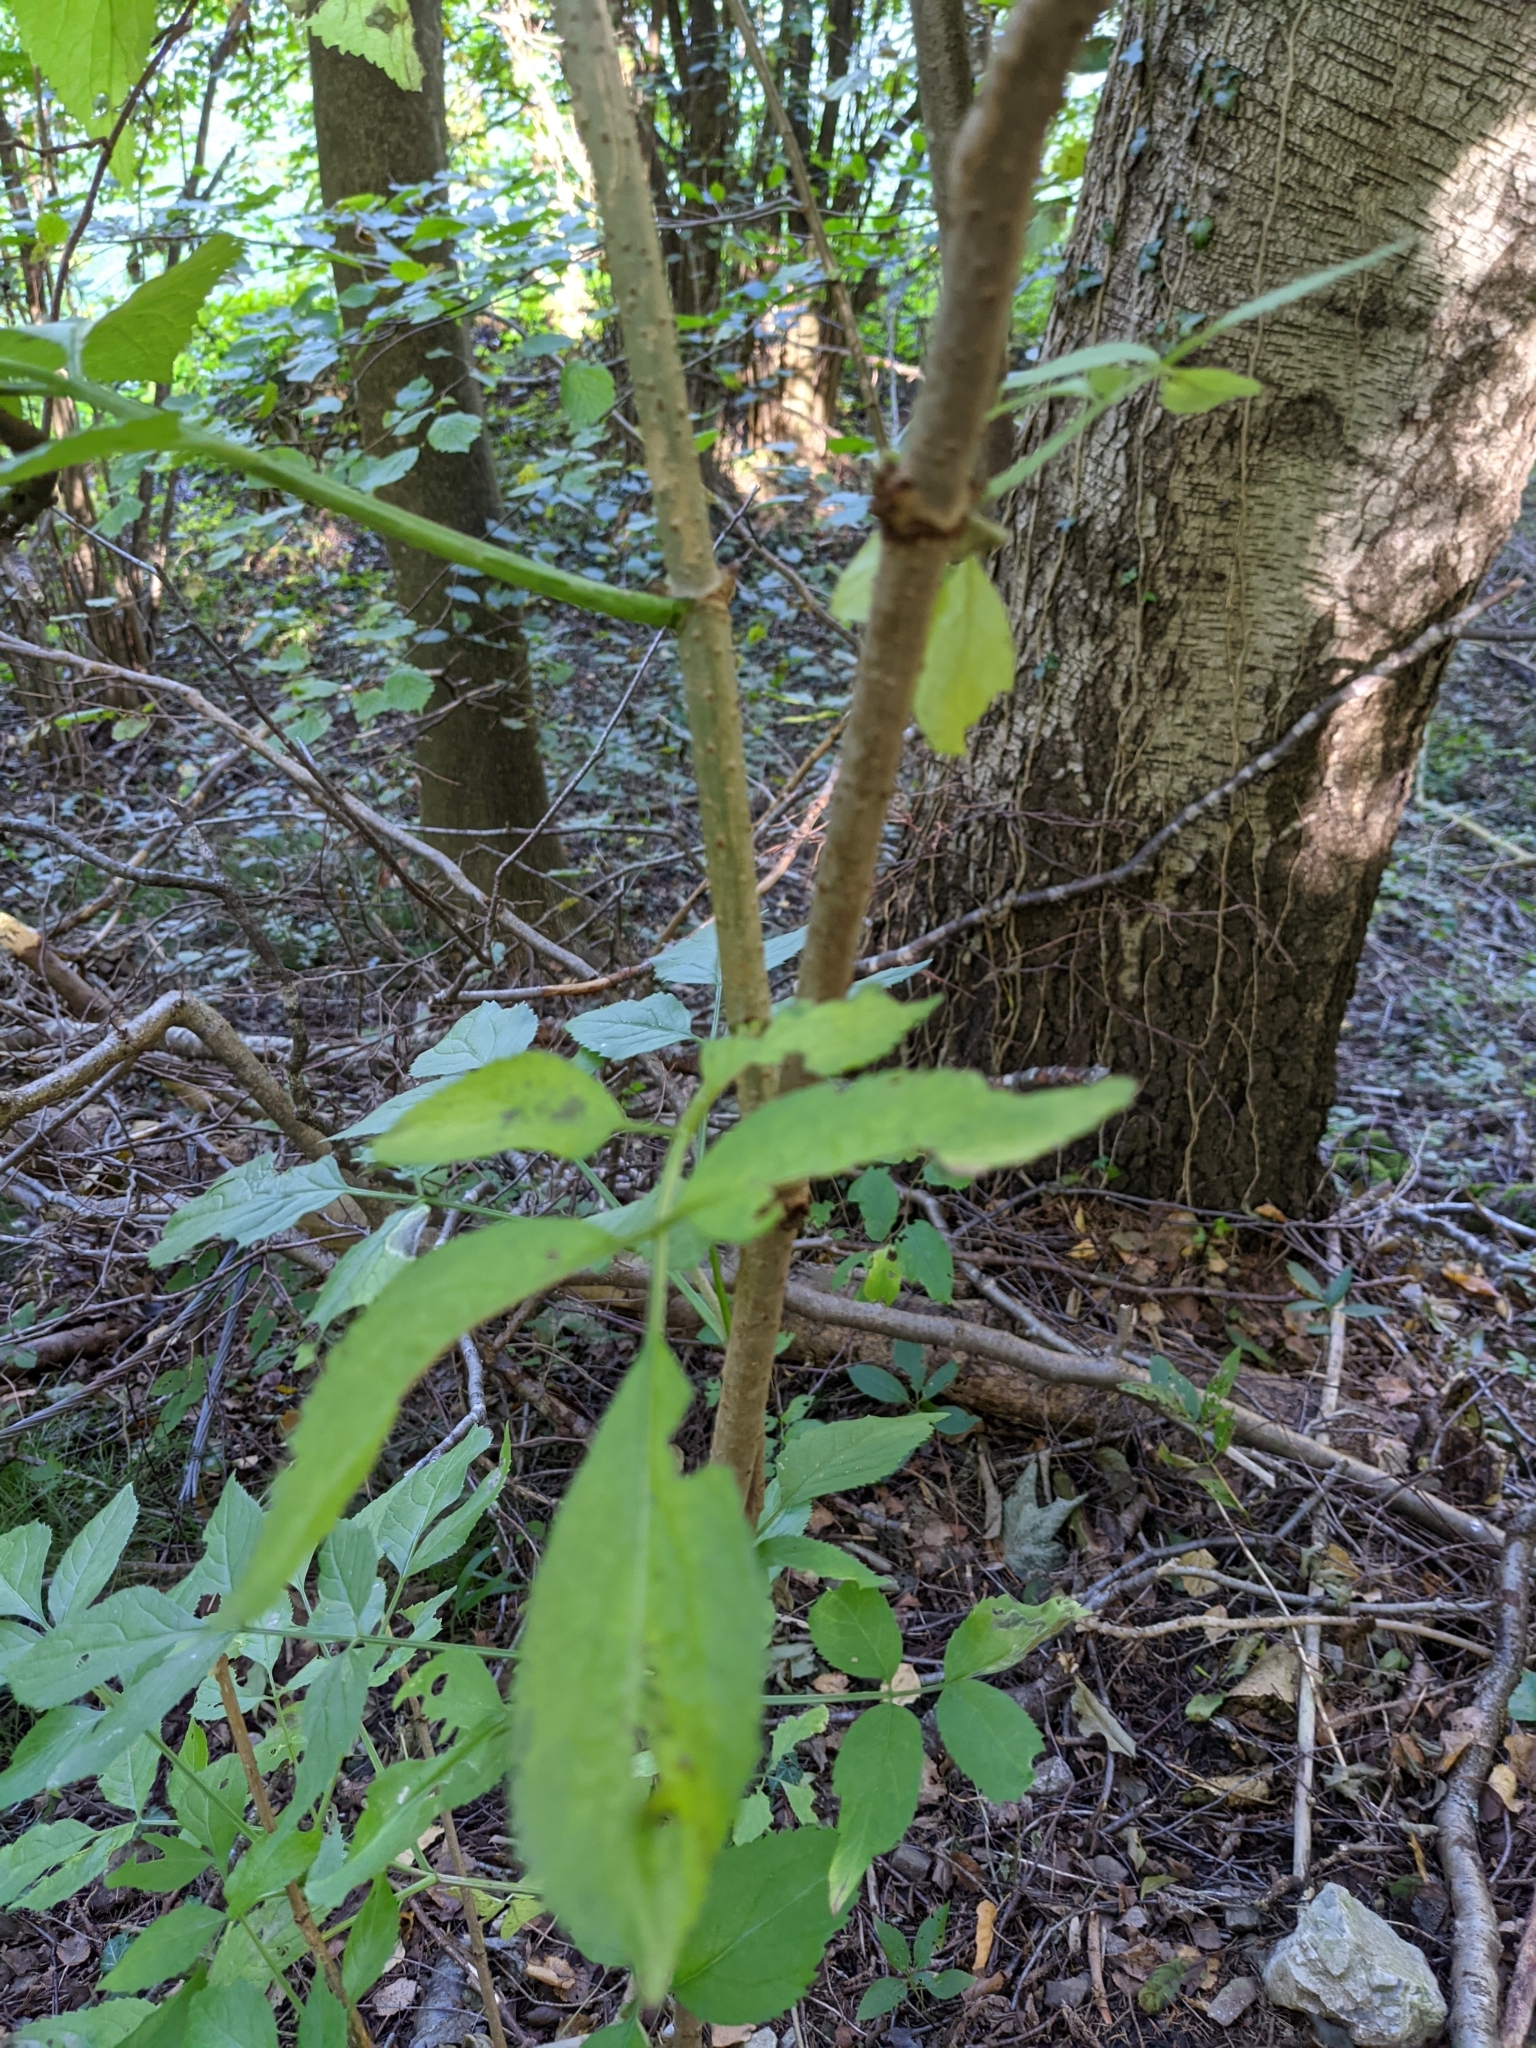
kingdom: Plantae
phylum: Tracheophyta
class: Magnoliopsida
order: Dipsacales
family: Viburnaceae
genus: Sambucus
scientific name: Sambucus nigra
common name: Elder
